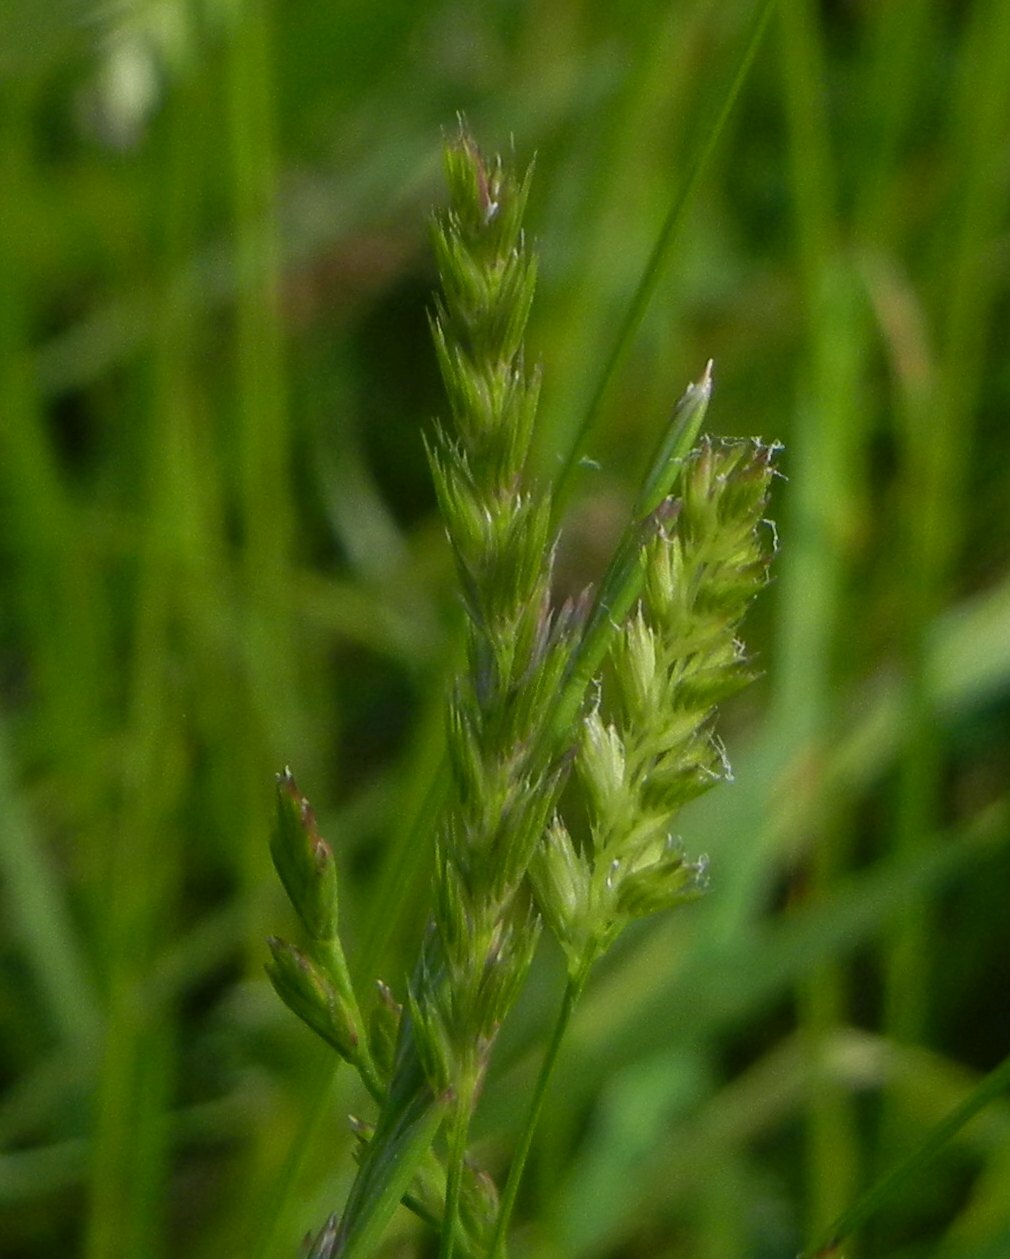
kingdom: Plantae
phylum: Tracheophyta
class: Liliopsida
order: Poales
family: Poaceae
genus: Cynosurus
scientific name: Cynosurus cristatus
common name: Crested dog's-tail
